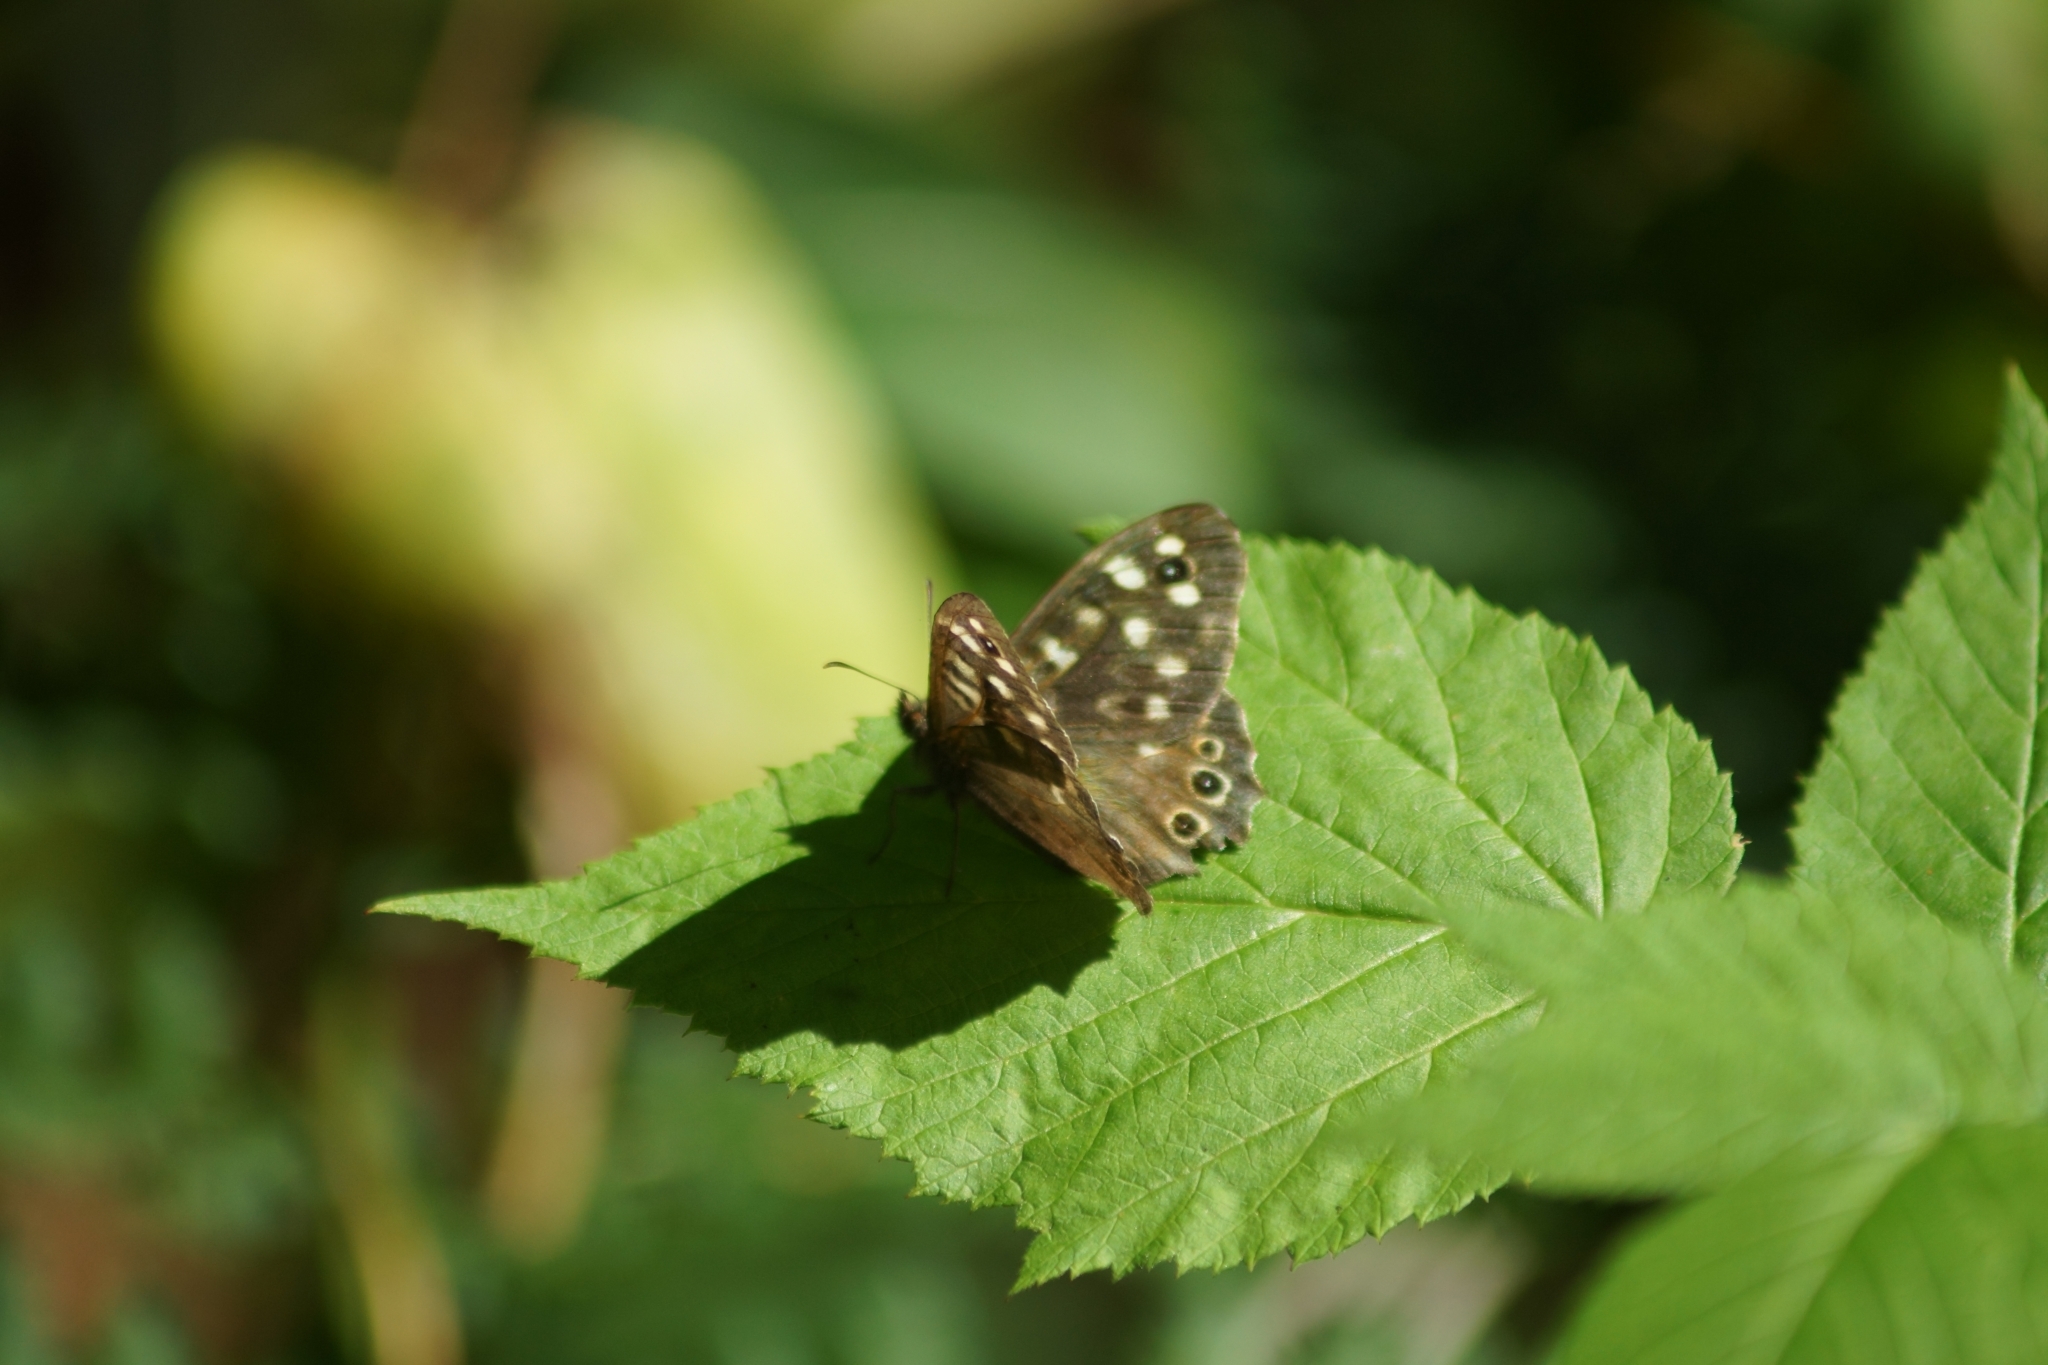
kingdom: Animalia
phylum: Arthropoda
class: Insecta
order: Lepidoptera
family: Nymphalidae
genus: Pararge
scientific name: Pararge aegeria
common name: Speckled wood
